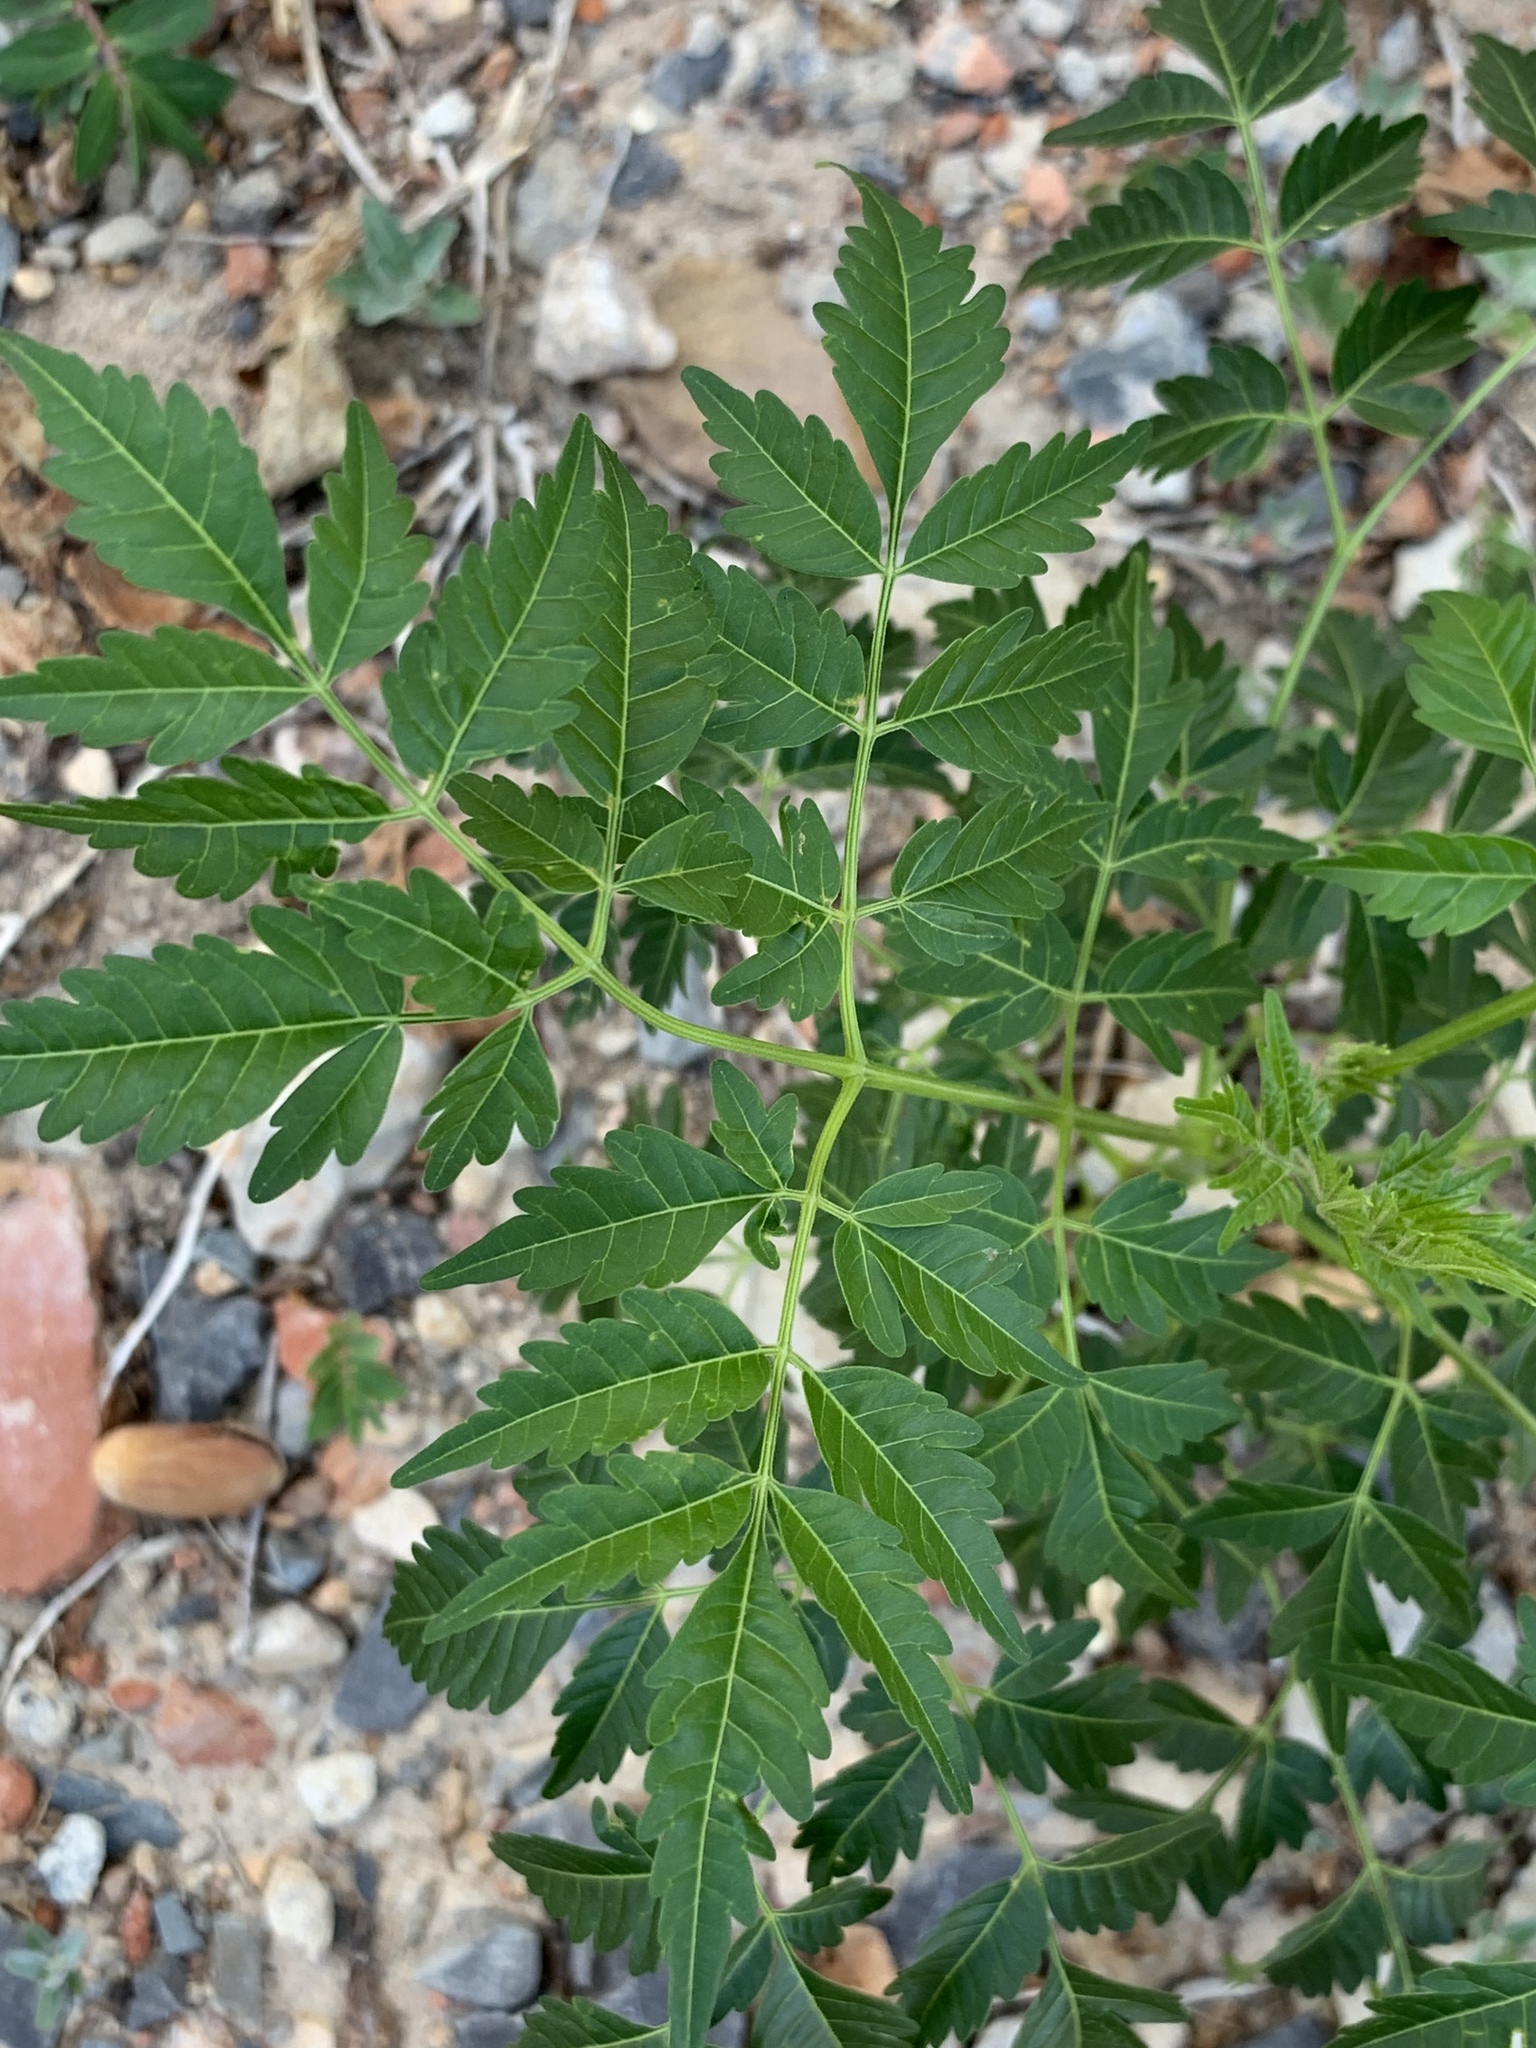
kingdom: Plantae
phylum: Tracheophyta
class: Magnoliopsida
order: Sapindales
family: Meliaceae
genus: Melia
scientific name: Melia azedarach
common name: Chinaberrytree
